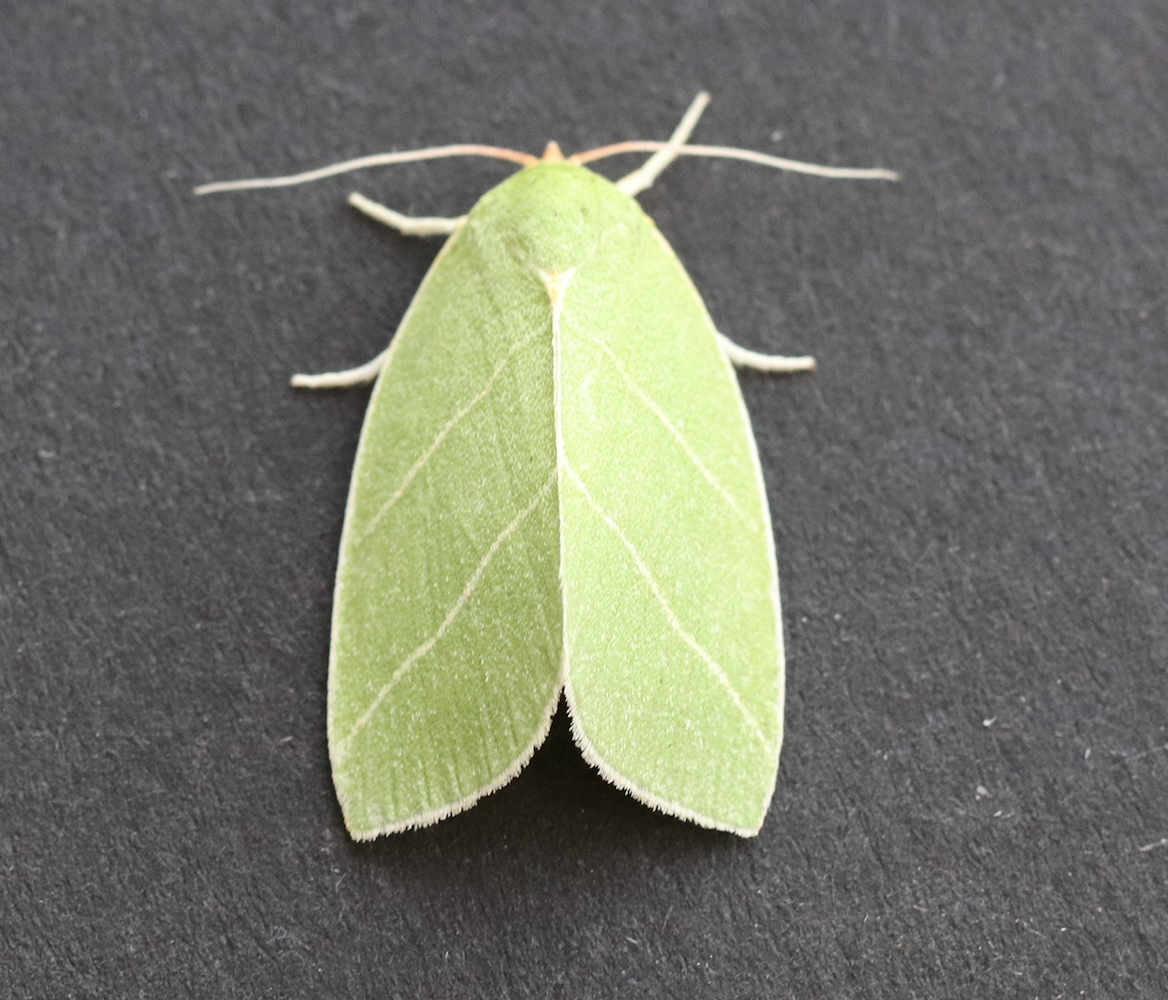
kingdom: Animalia
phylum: Arthropoda
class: Insecta
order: Lepidoptera
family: Nolidae
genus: Bena
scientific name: Bena bicolorana
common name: Scarce silver-lines
